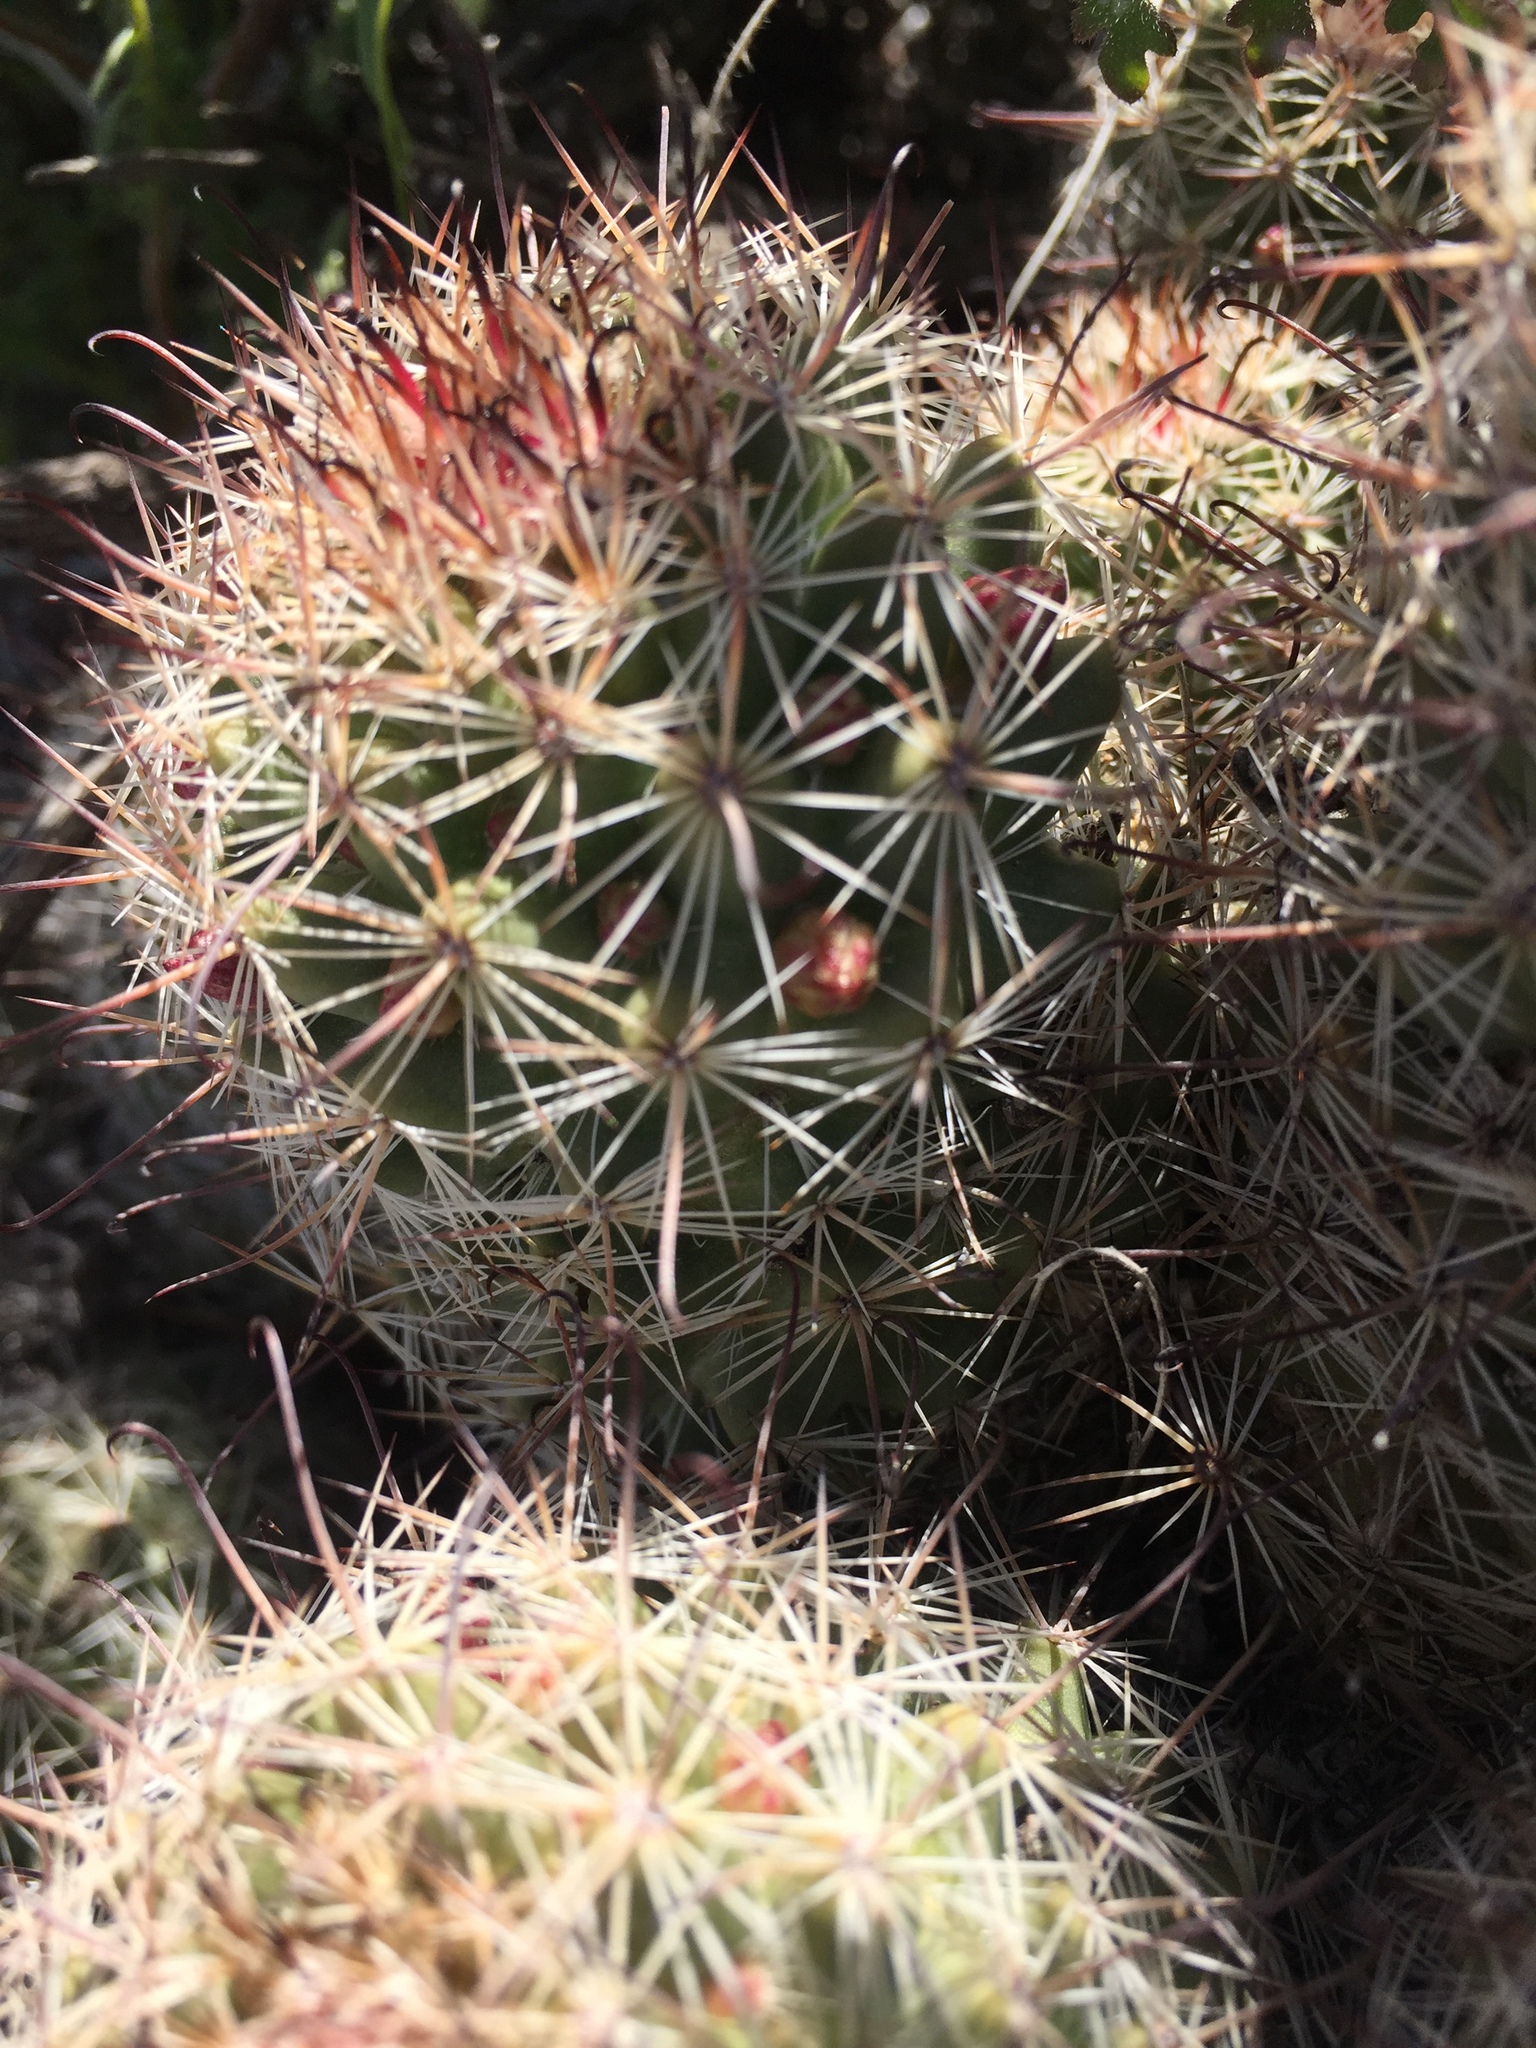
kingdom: Plantae
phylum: Tracheophyta
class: Magnoliopsida
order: Caryophyllales
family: Cactaceae
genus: Cochemiea
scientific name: Cochemiea dioica
